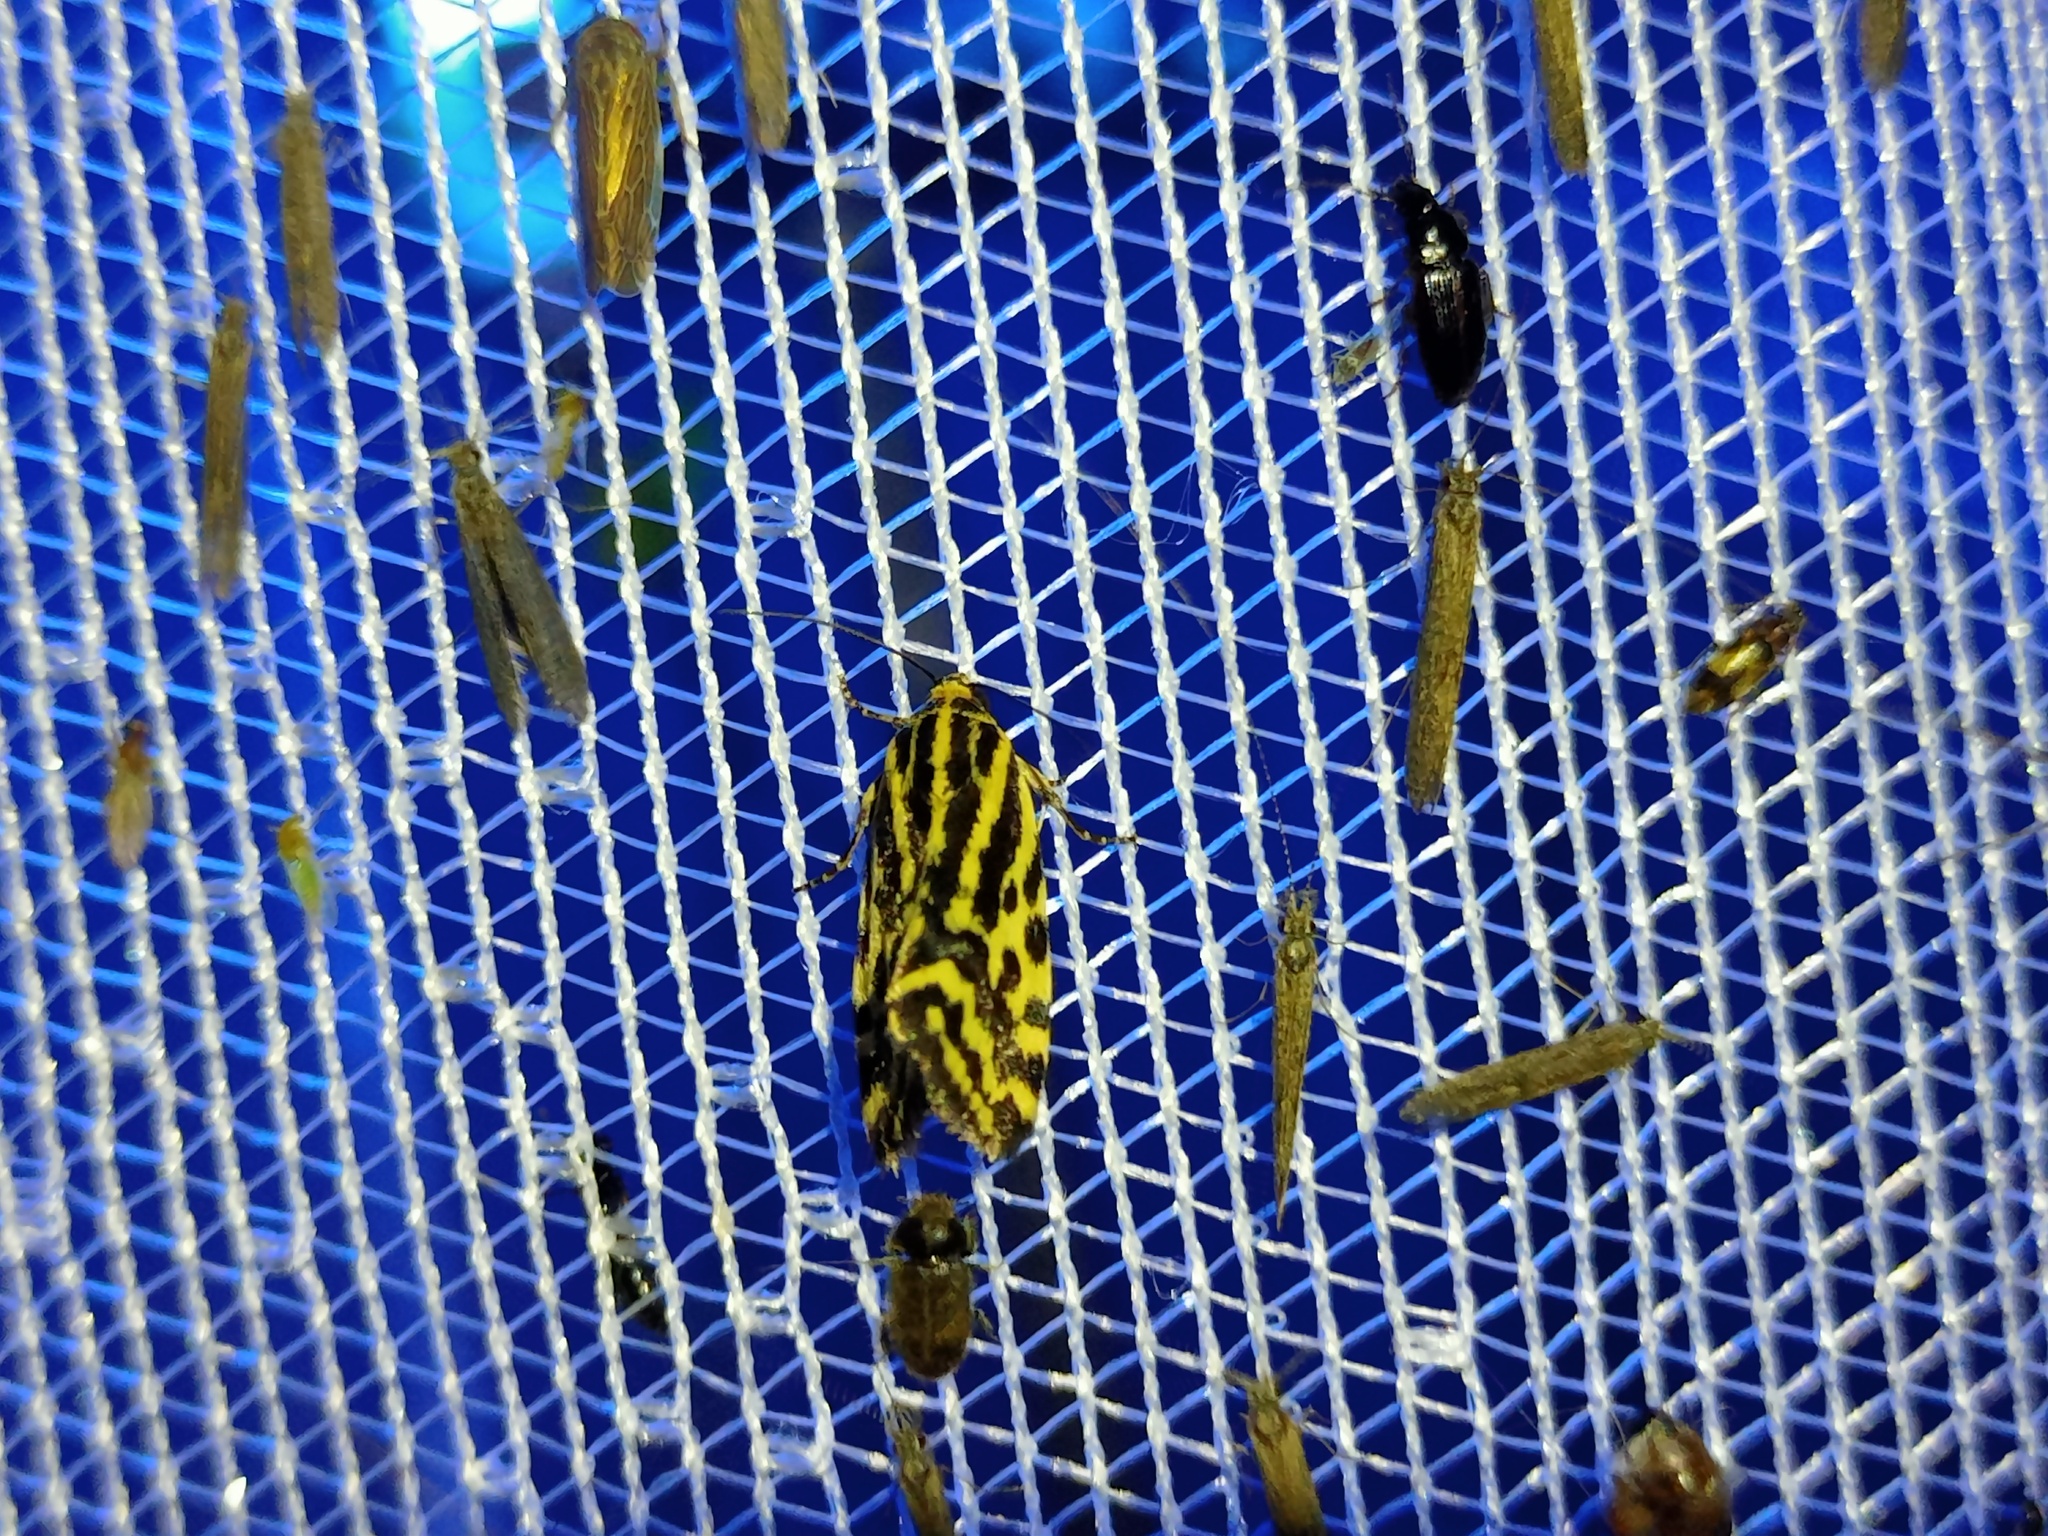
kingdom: Animalia
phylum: Arthropoda
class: Insecta
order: Lepidoptera
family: Noctuidae
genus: Acontia
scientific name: Acontia trabealis
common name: Spotted sulphur
